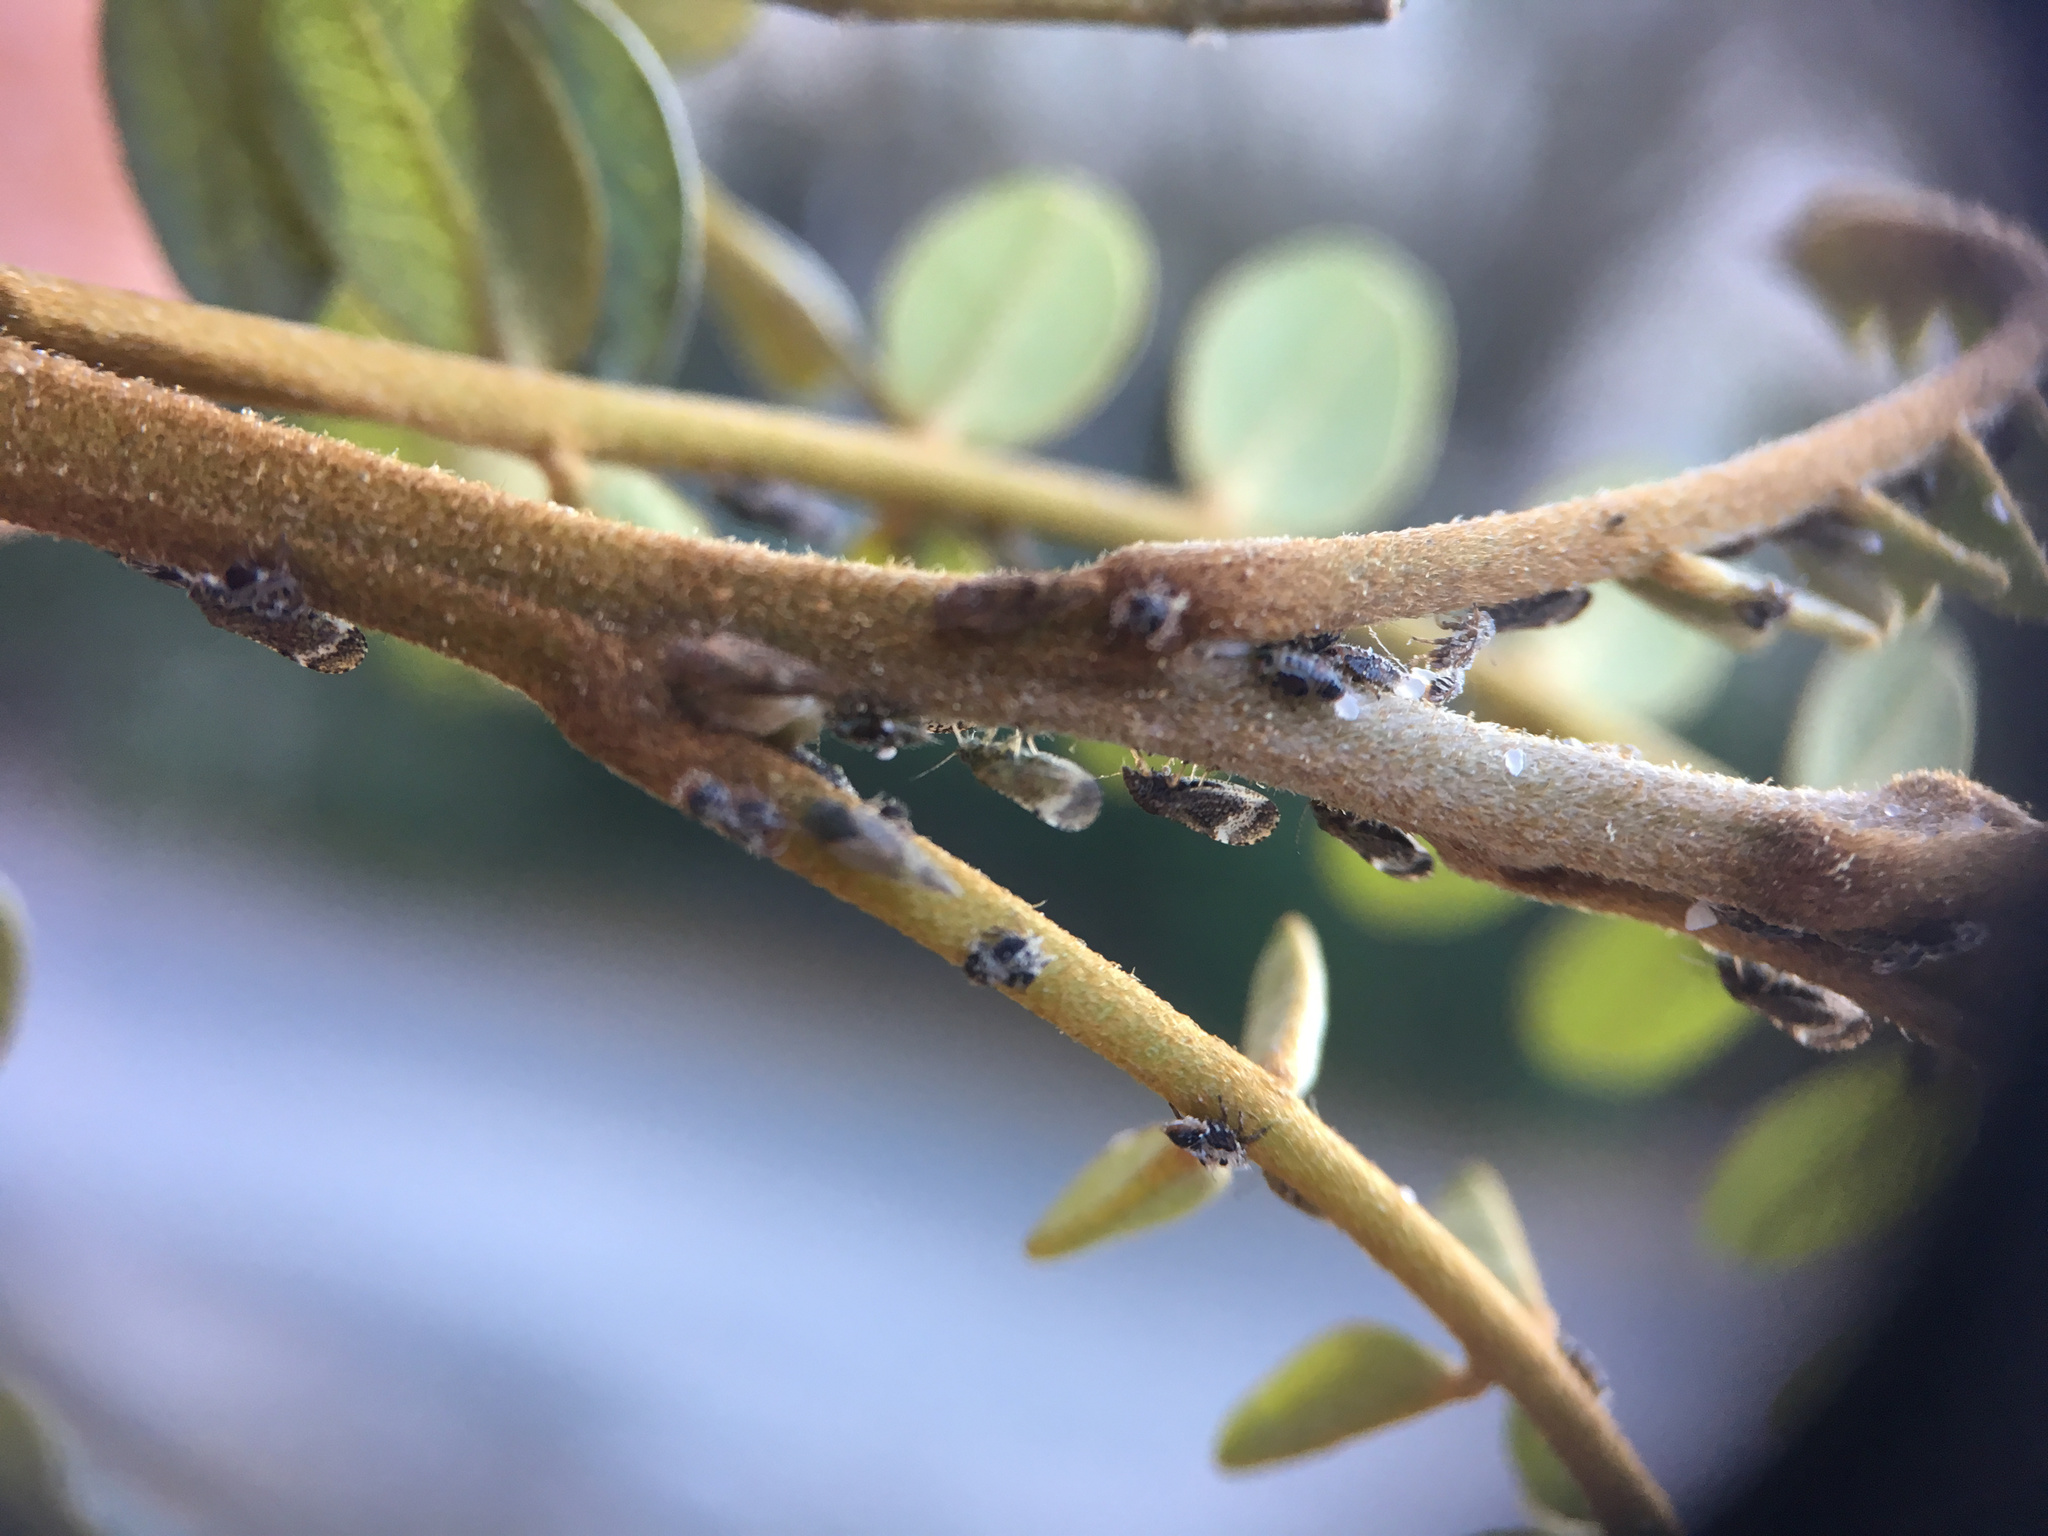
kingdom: Animalia
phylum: Arthropoda
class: Insecta
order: Hemiptera
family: Psyllidae
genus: Acizzia
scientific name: Acizzia apicalis
